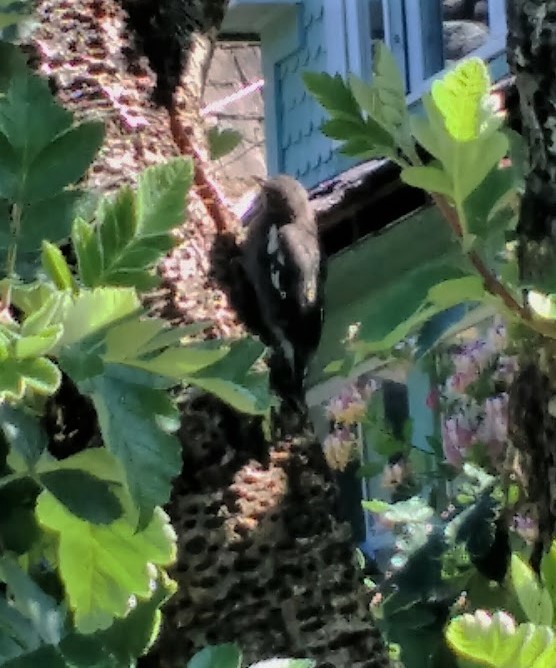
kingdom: Animalia
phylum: Chordata
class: Aves
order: Piciformes
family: Picidae
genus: Sphyrapicus
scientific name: Sphyrapicus ruber
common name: Red-breasted sapsucker
